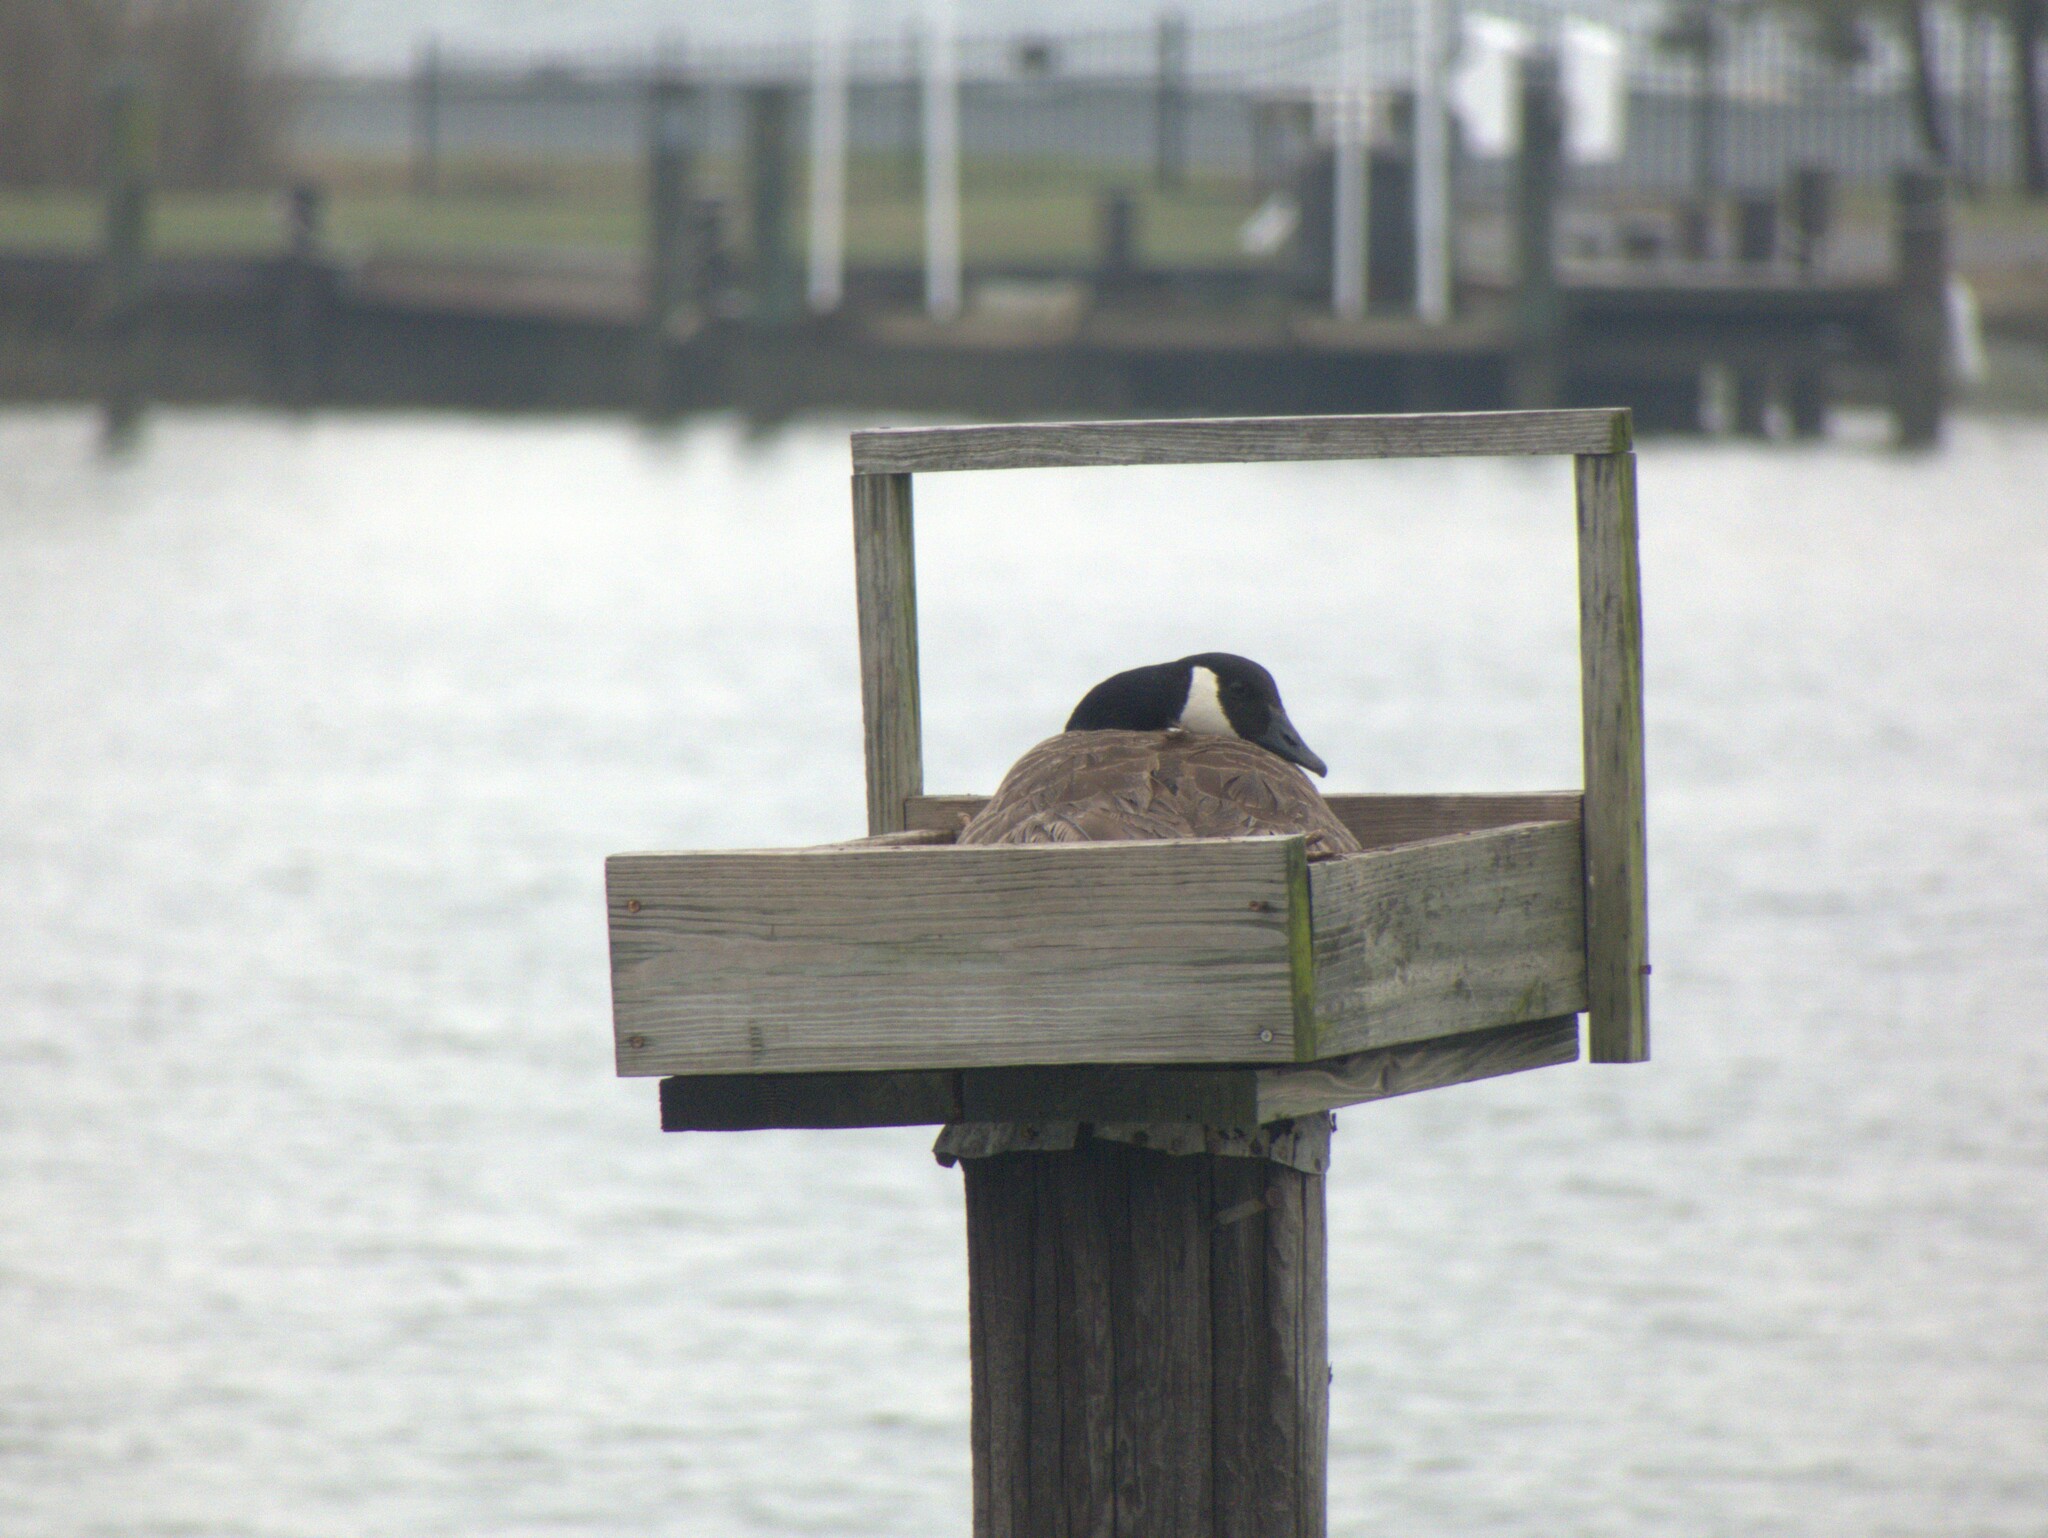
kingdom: Animalia
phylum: Chordata
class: Aves
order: Anseriformes
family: Anatidae
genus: Branta
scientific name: Branta canadensis
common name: Canada goose
